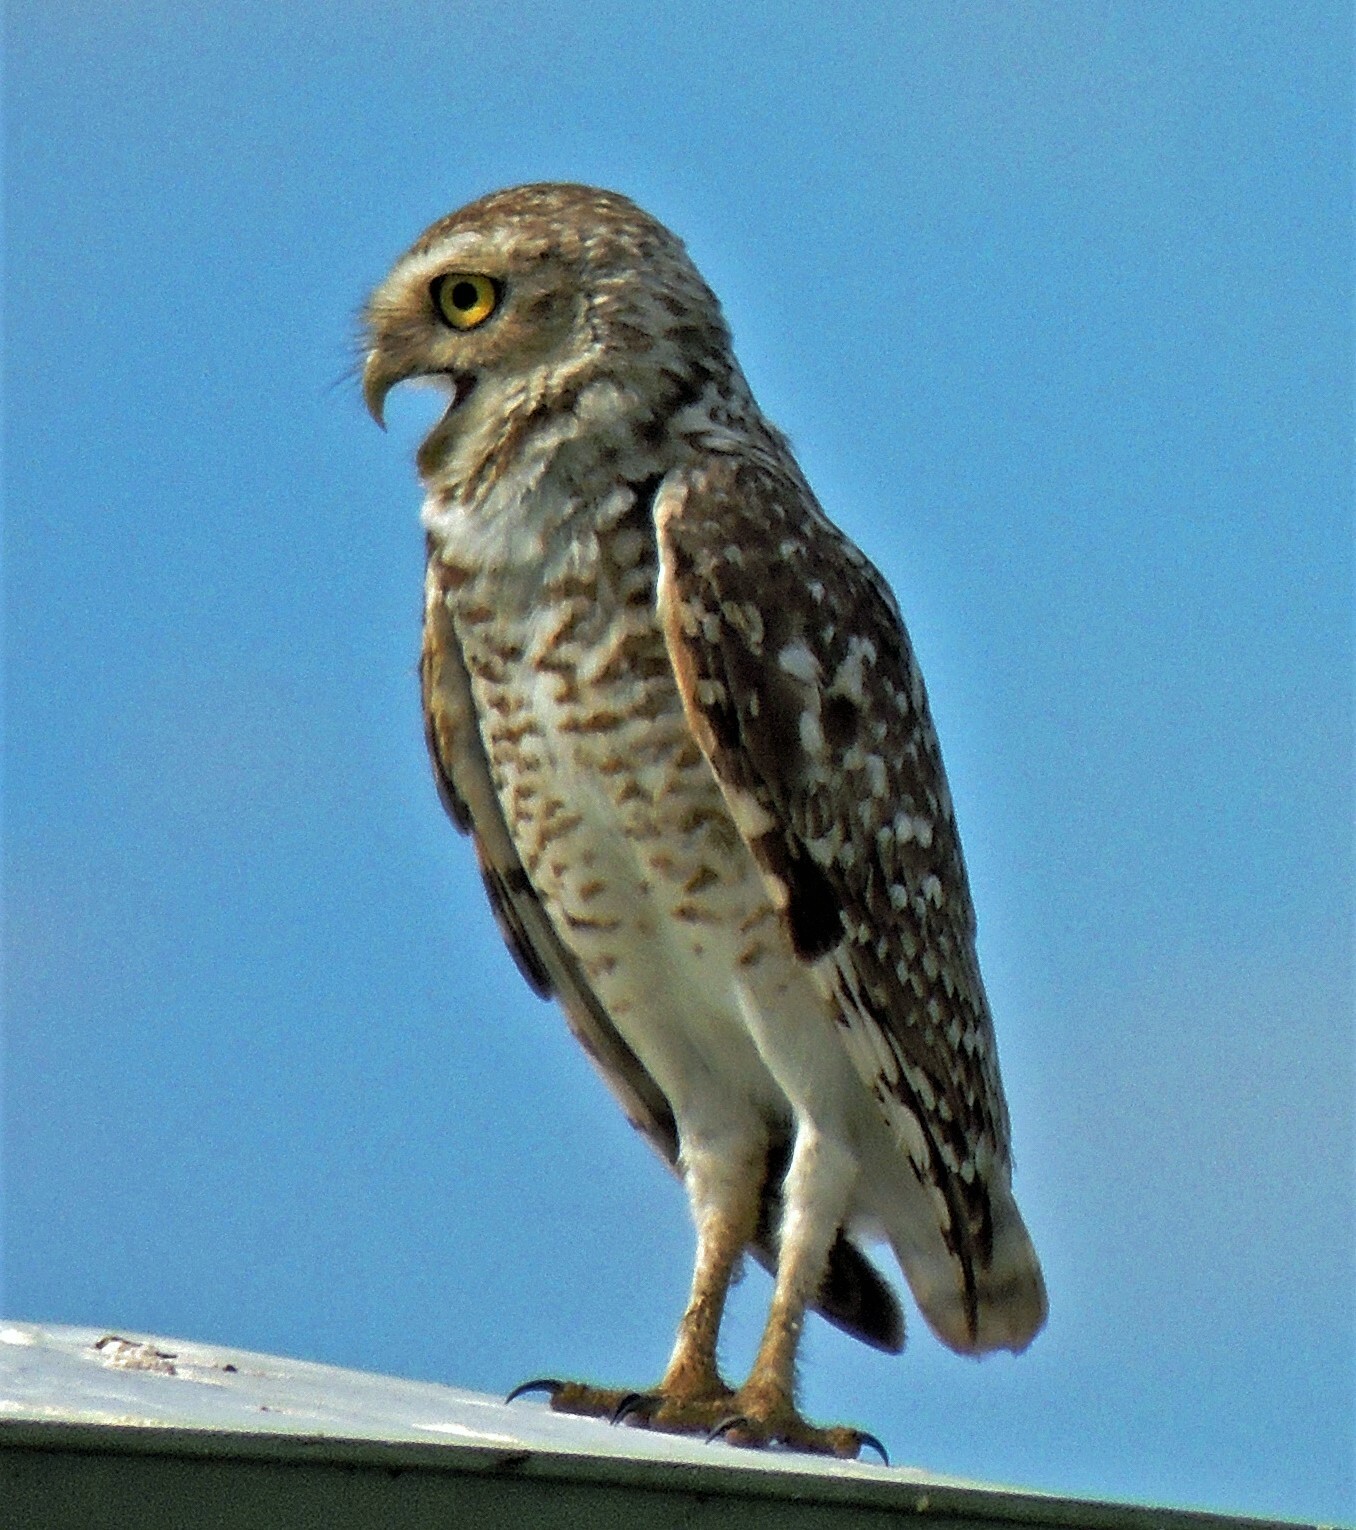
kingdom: Animalia
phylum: Chordata
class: Aves
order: Strigiformes
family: Strigidae
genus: Athene
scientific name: Athene cunicularia
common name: Burrowing owl
